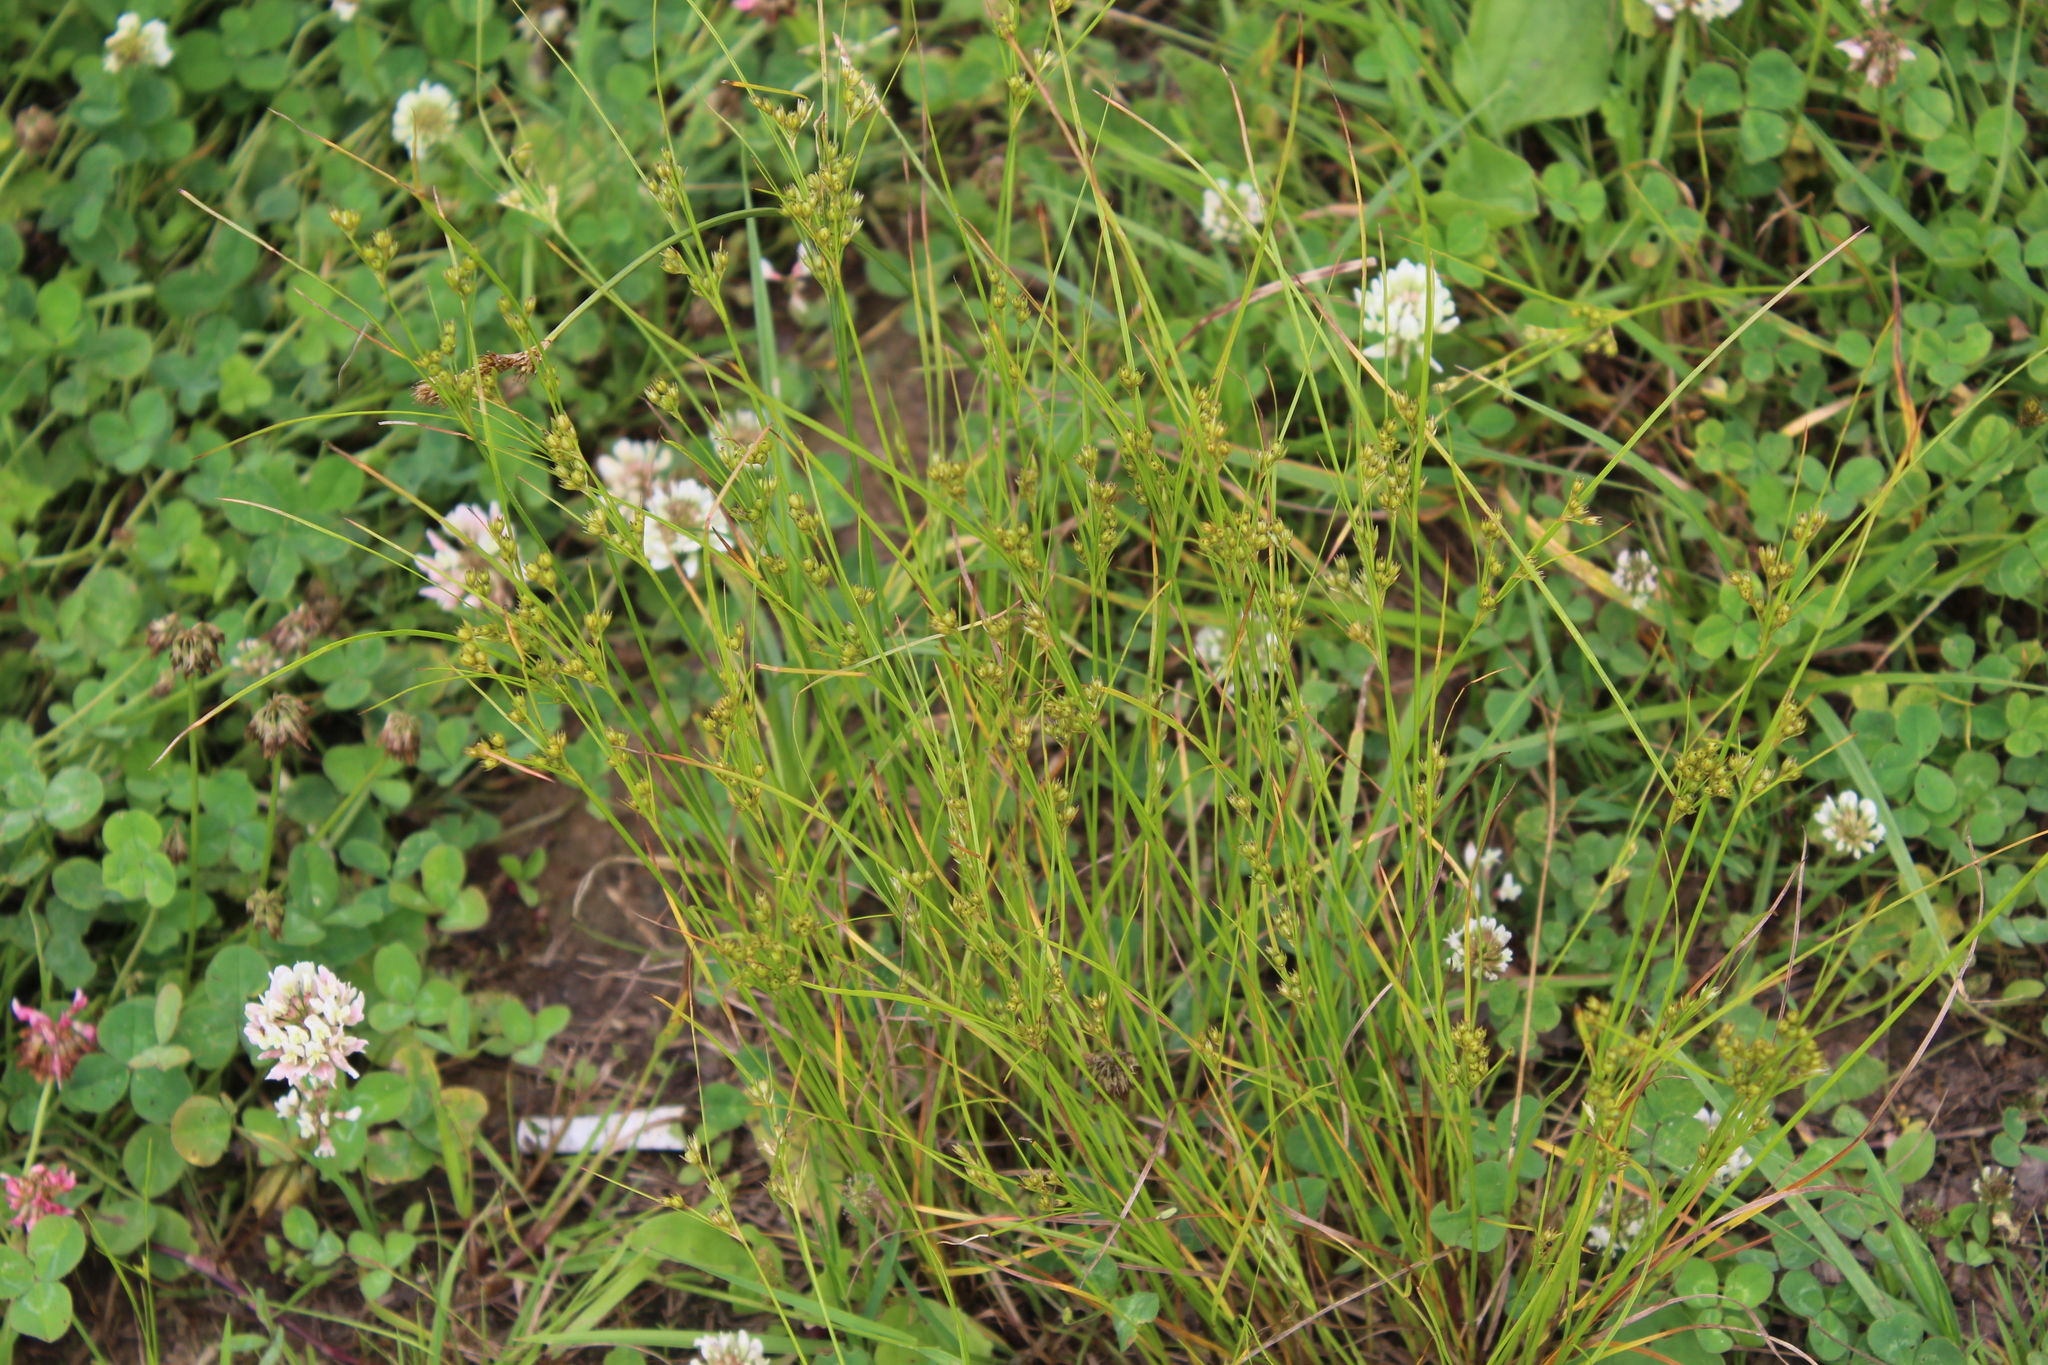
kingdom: Plantae
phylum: Tracheophyta
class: Liliopsida
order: Poales
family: Juncaceae
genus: Juncus
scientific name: Juncus tenuis
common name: Slender rush
